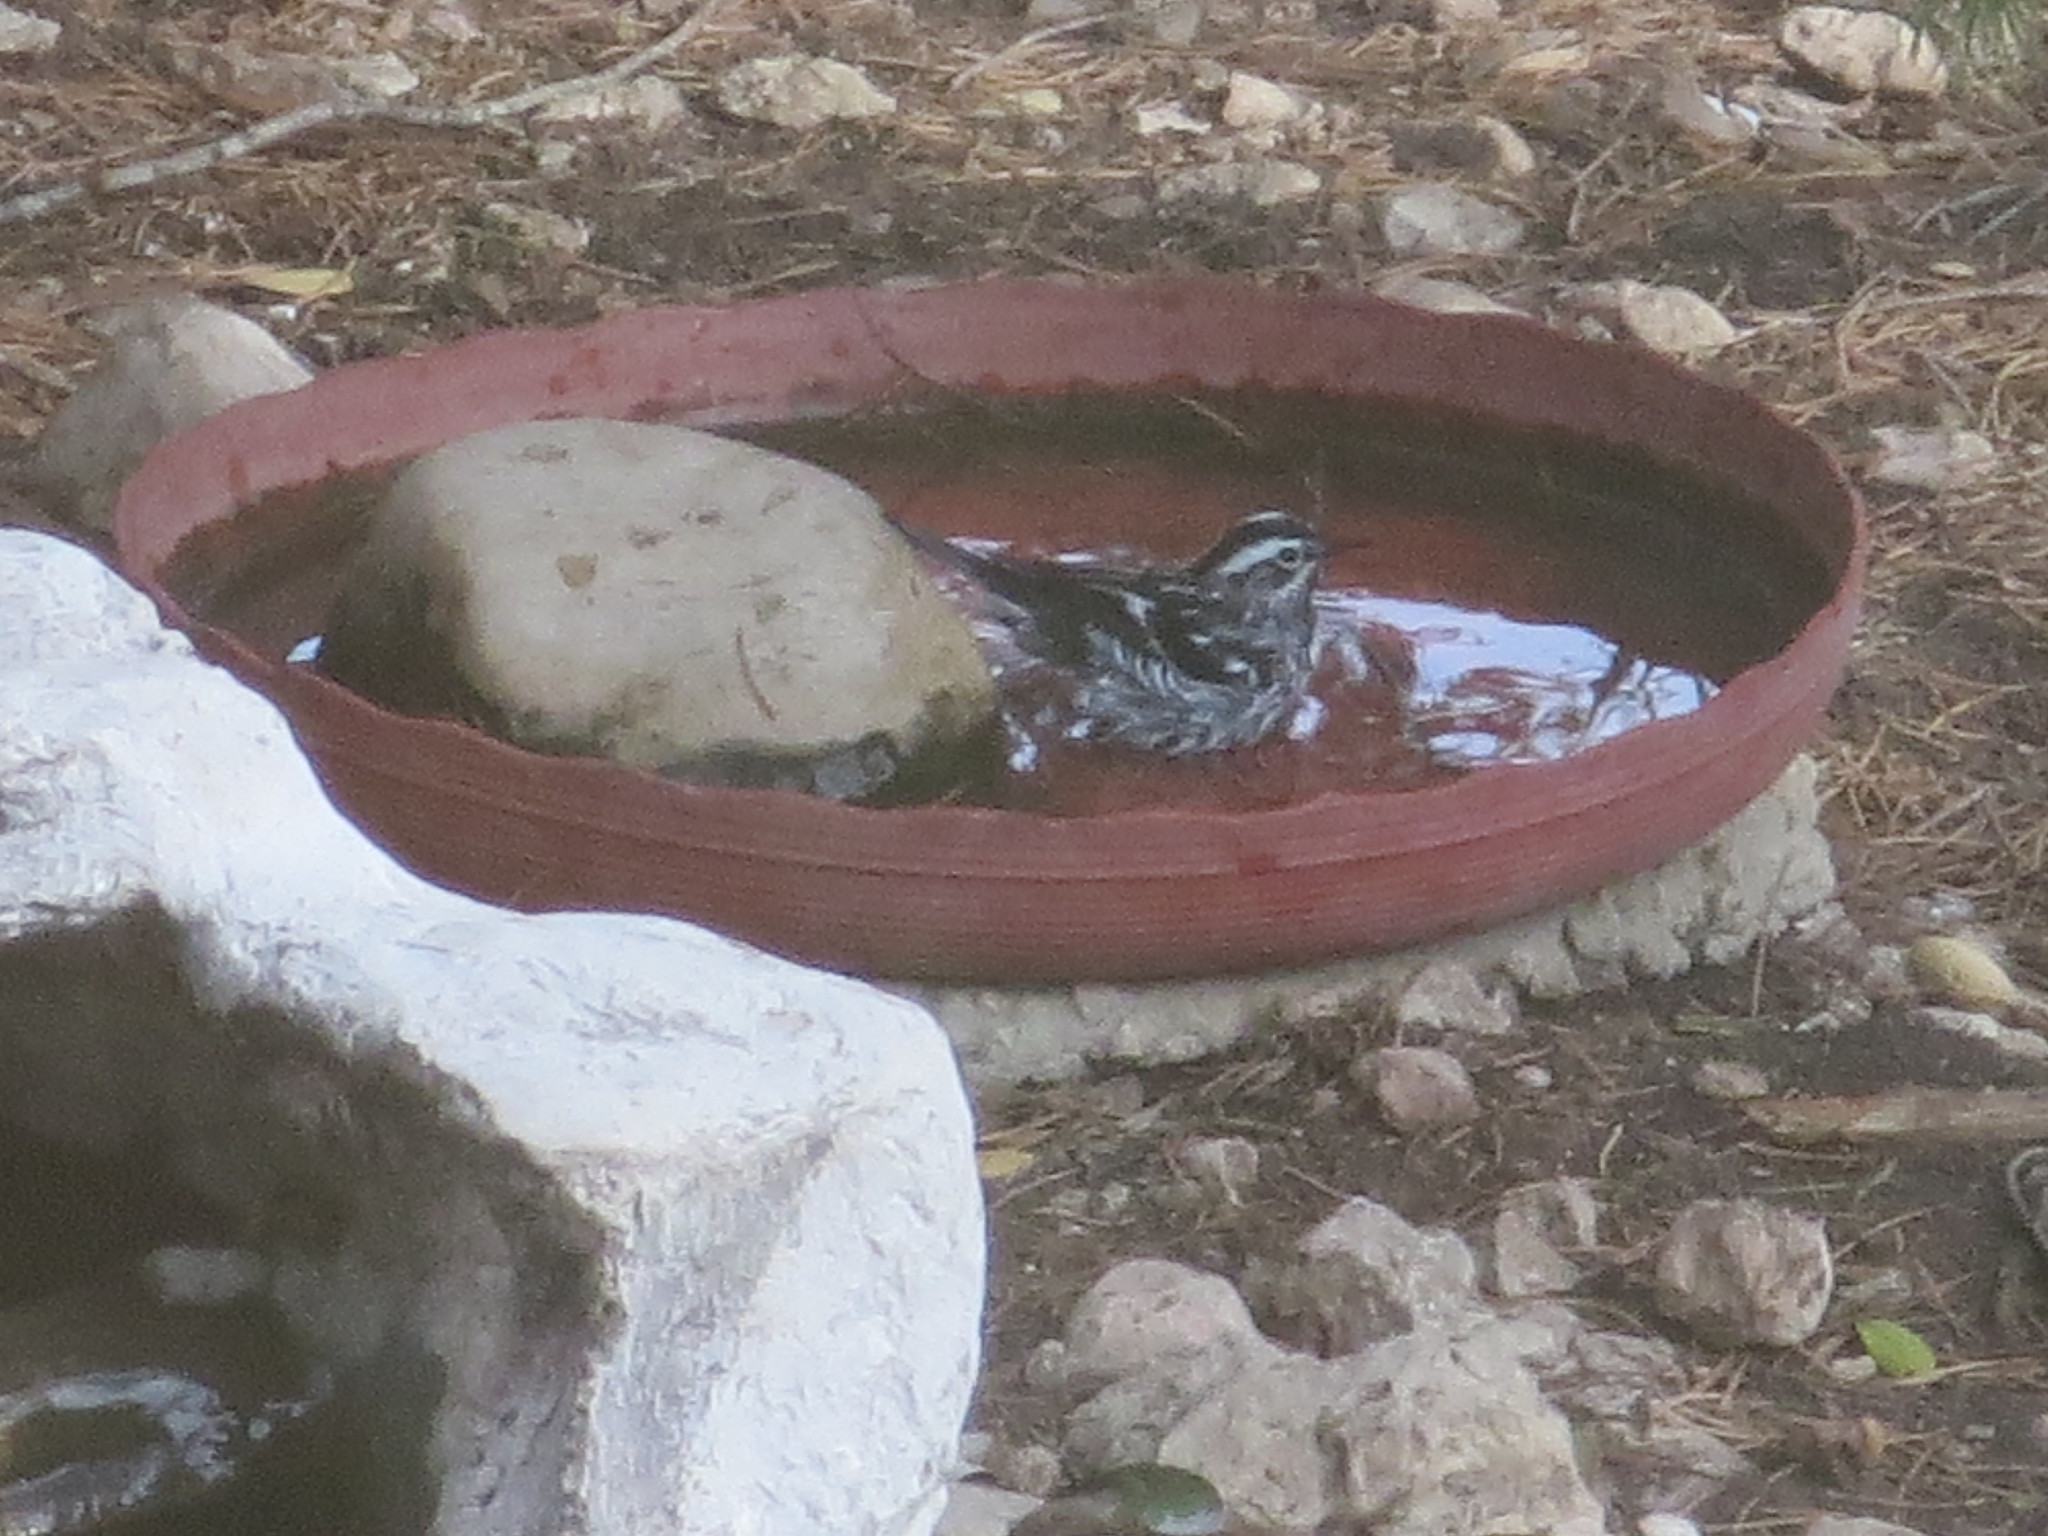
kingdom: Animalia
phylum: Chordata
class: Aves
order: Passeriformes
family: Parulidae
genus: Mniotilta
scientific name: Mniotilta varia
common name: Black-and-white warbler
